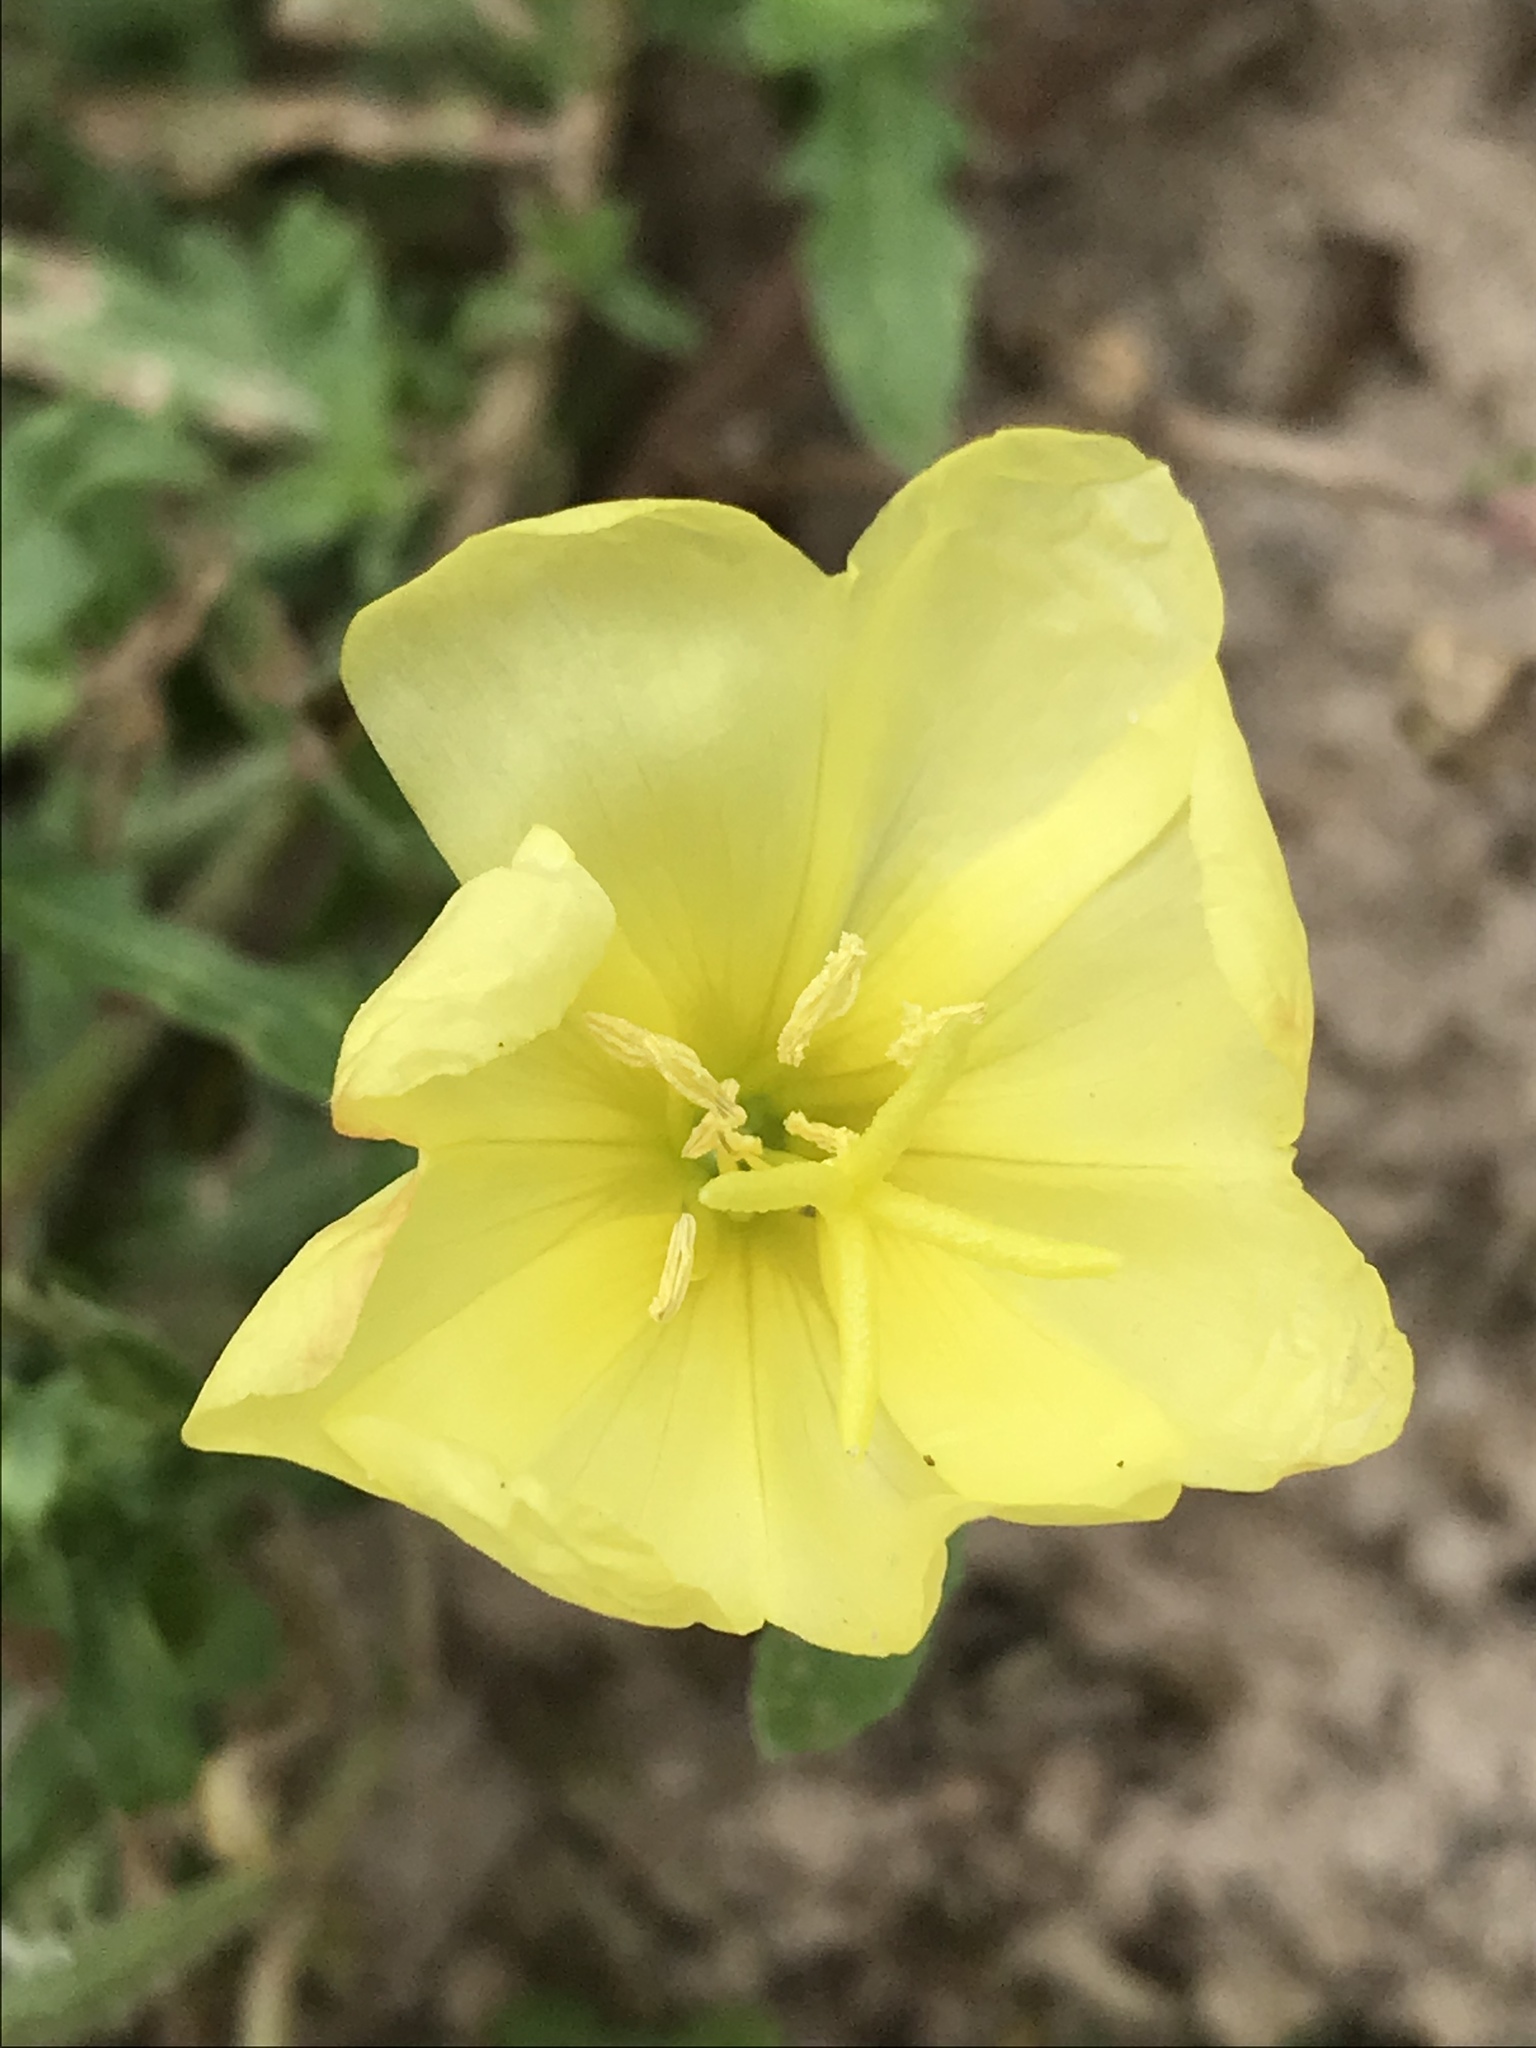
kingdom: Plantae
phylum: Tracheophyta
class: Magnoliopsida
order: Myrtales
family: Onagraceae
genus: Oenothera
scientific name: Oenothera laciniata
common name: Cut-leaved evening-primrose
